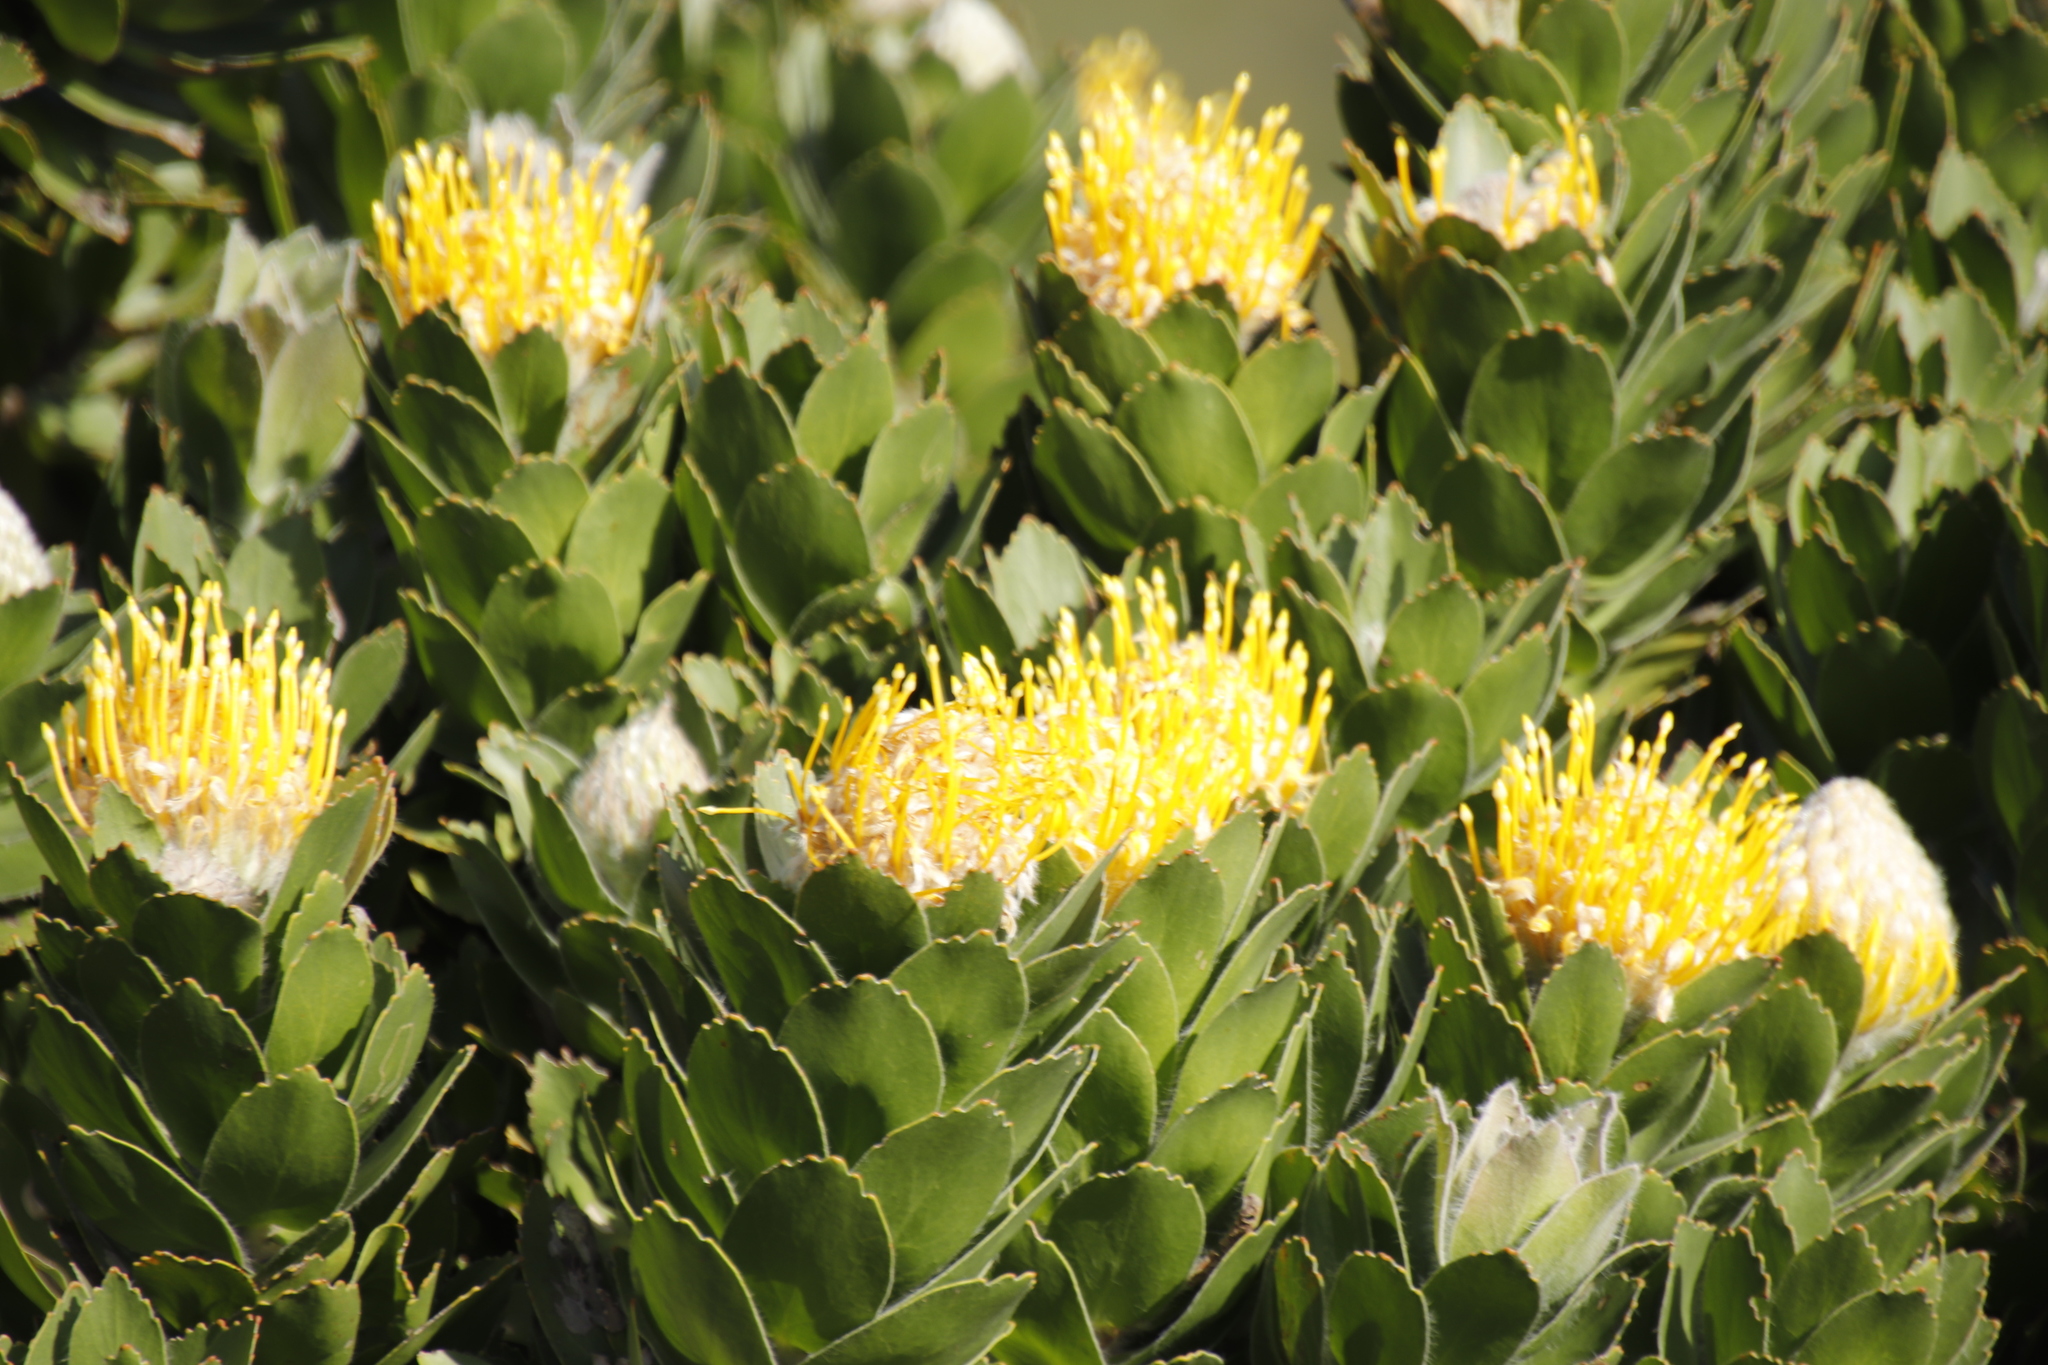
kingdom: Plantae
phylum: Tracheophyta
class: Magnoliopsida
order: Proteales
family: Proteaceae
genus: Leucospermum
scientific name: Leucospermum conocarpodendron
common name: Tree pincushion
